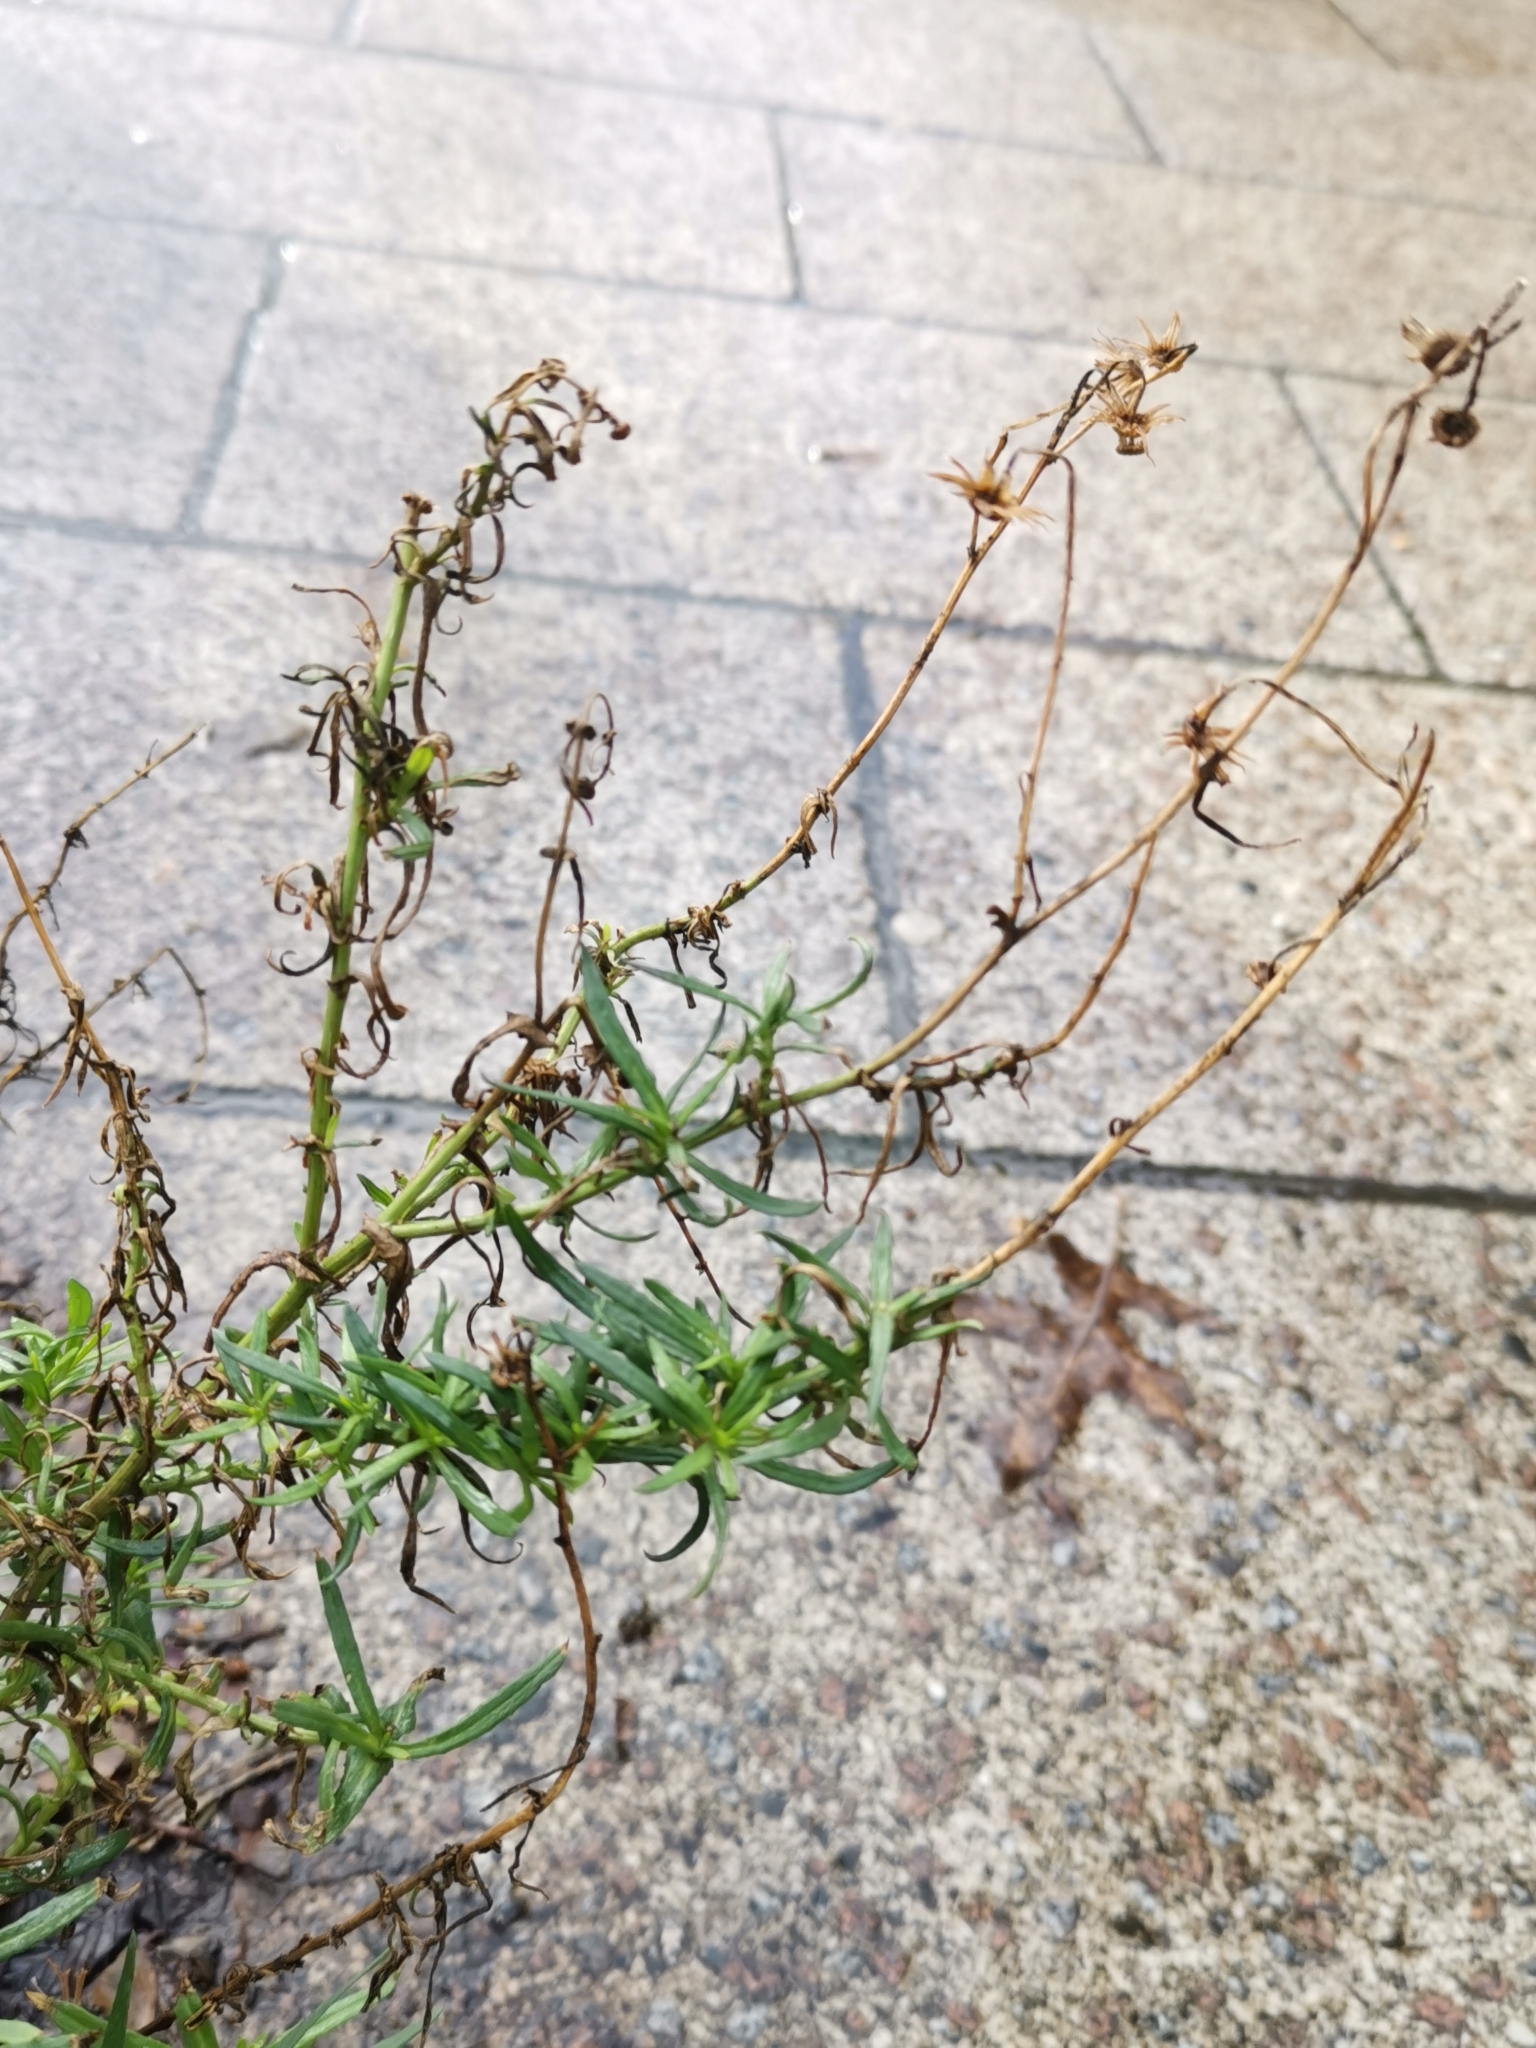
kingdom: Plantae
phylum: Tracheophyta
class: Magnoliopsida
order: Asterales
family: Asteraceae
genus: Senecio
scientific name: Senecio inaequidens
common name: Narrow-leaved ragwort
